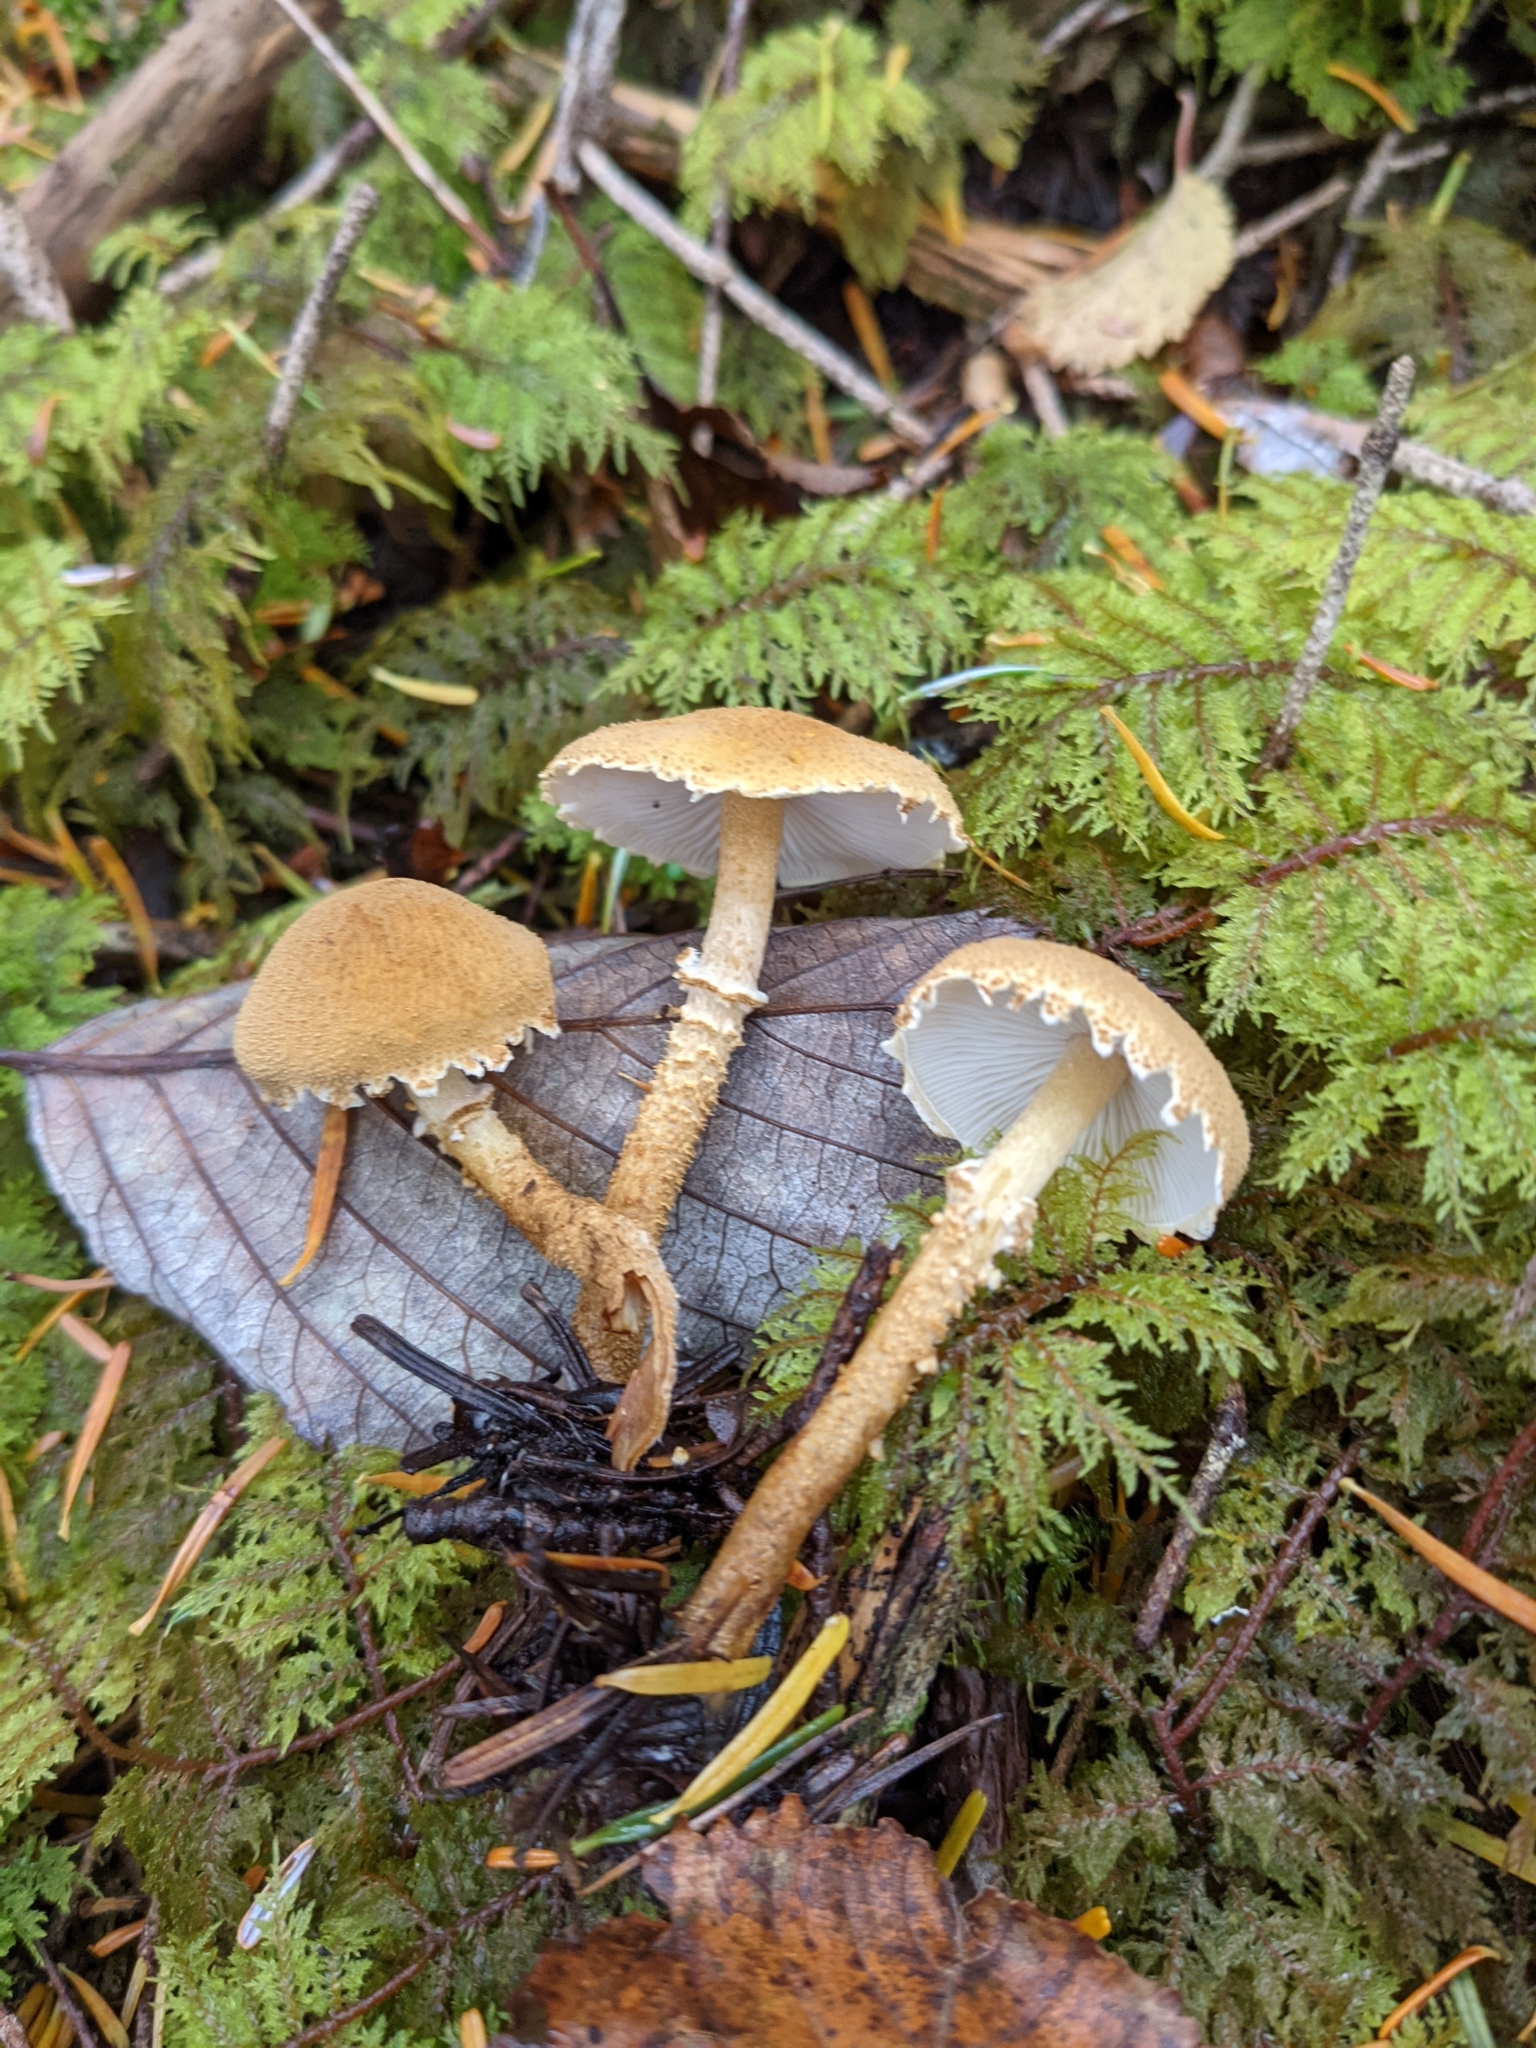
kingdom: Fungi
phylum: Basidiomycota
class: Agaricomycetes
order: Agaricales
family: Tricholomataceae
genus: Cystoderma
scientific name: Cystoderma amianthinum
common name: Earthy powdercap
